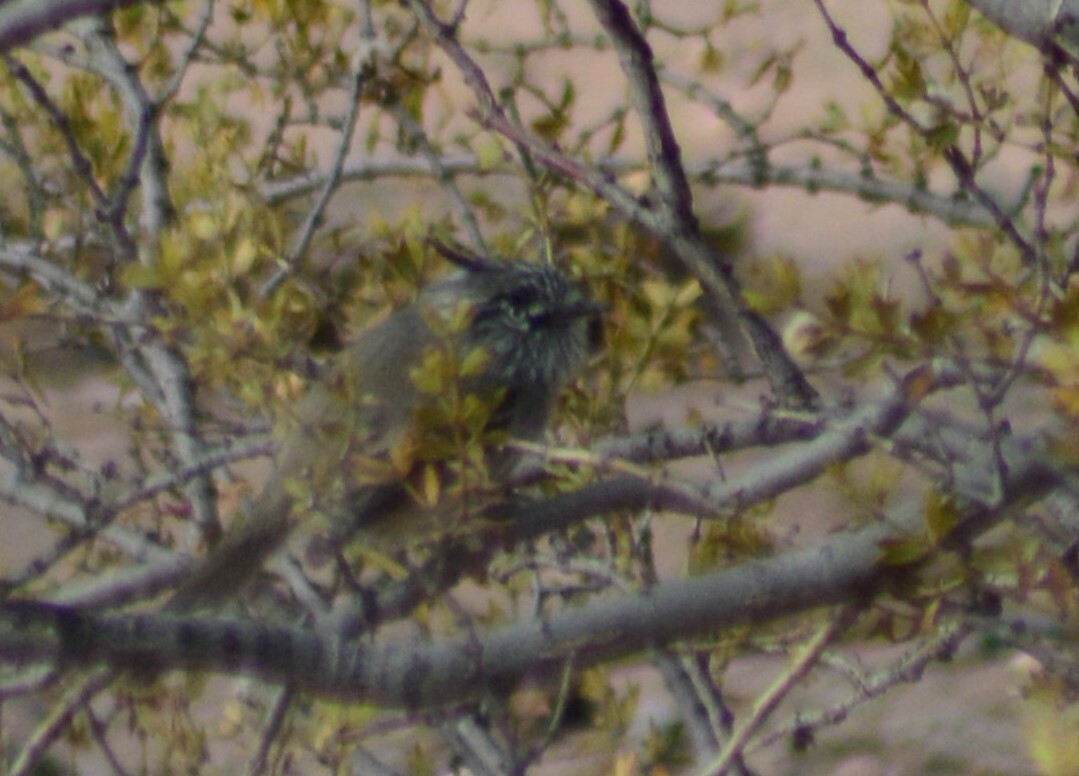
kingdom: Animalia
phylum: Chordata
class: Aves
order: Passeriformes
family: Tyrannidae
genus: Anairetes
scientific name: Anairetes parulus
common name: Tufted tit-tyrant
